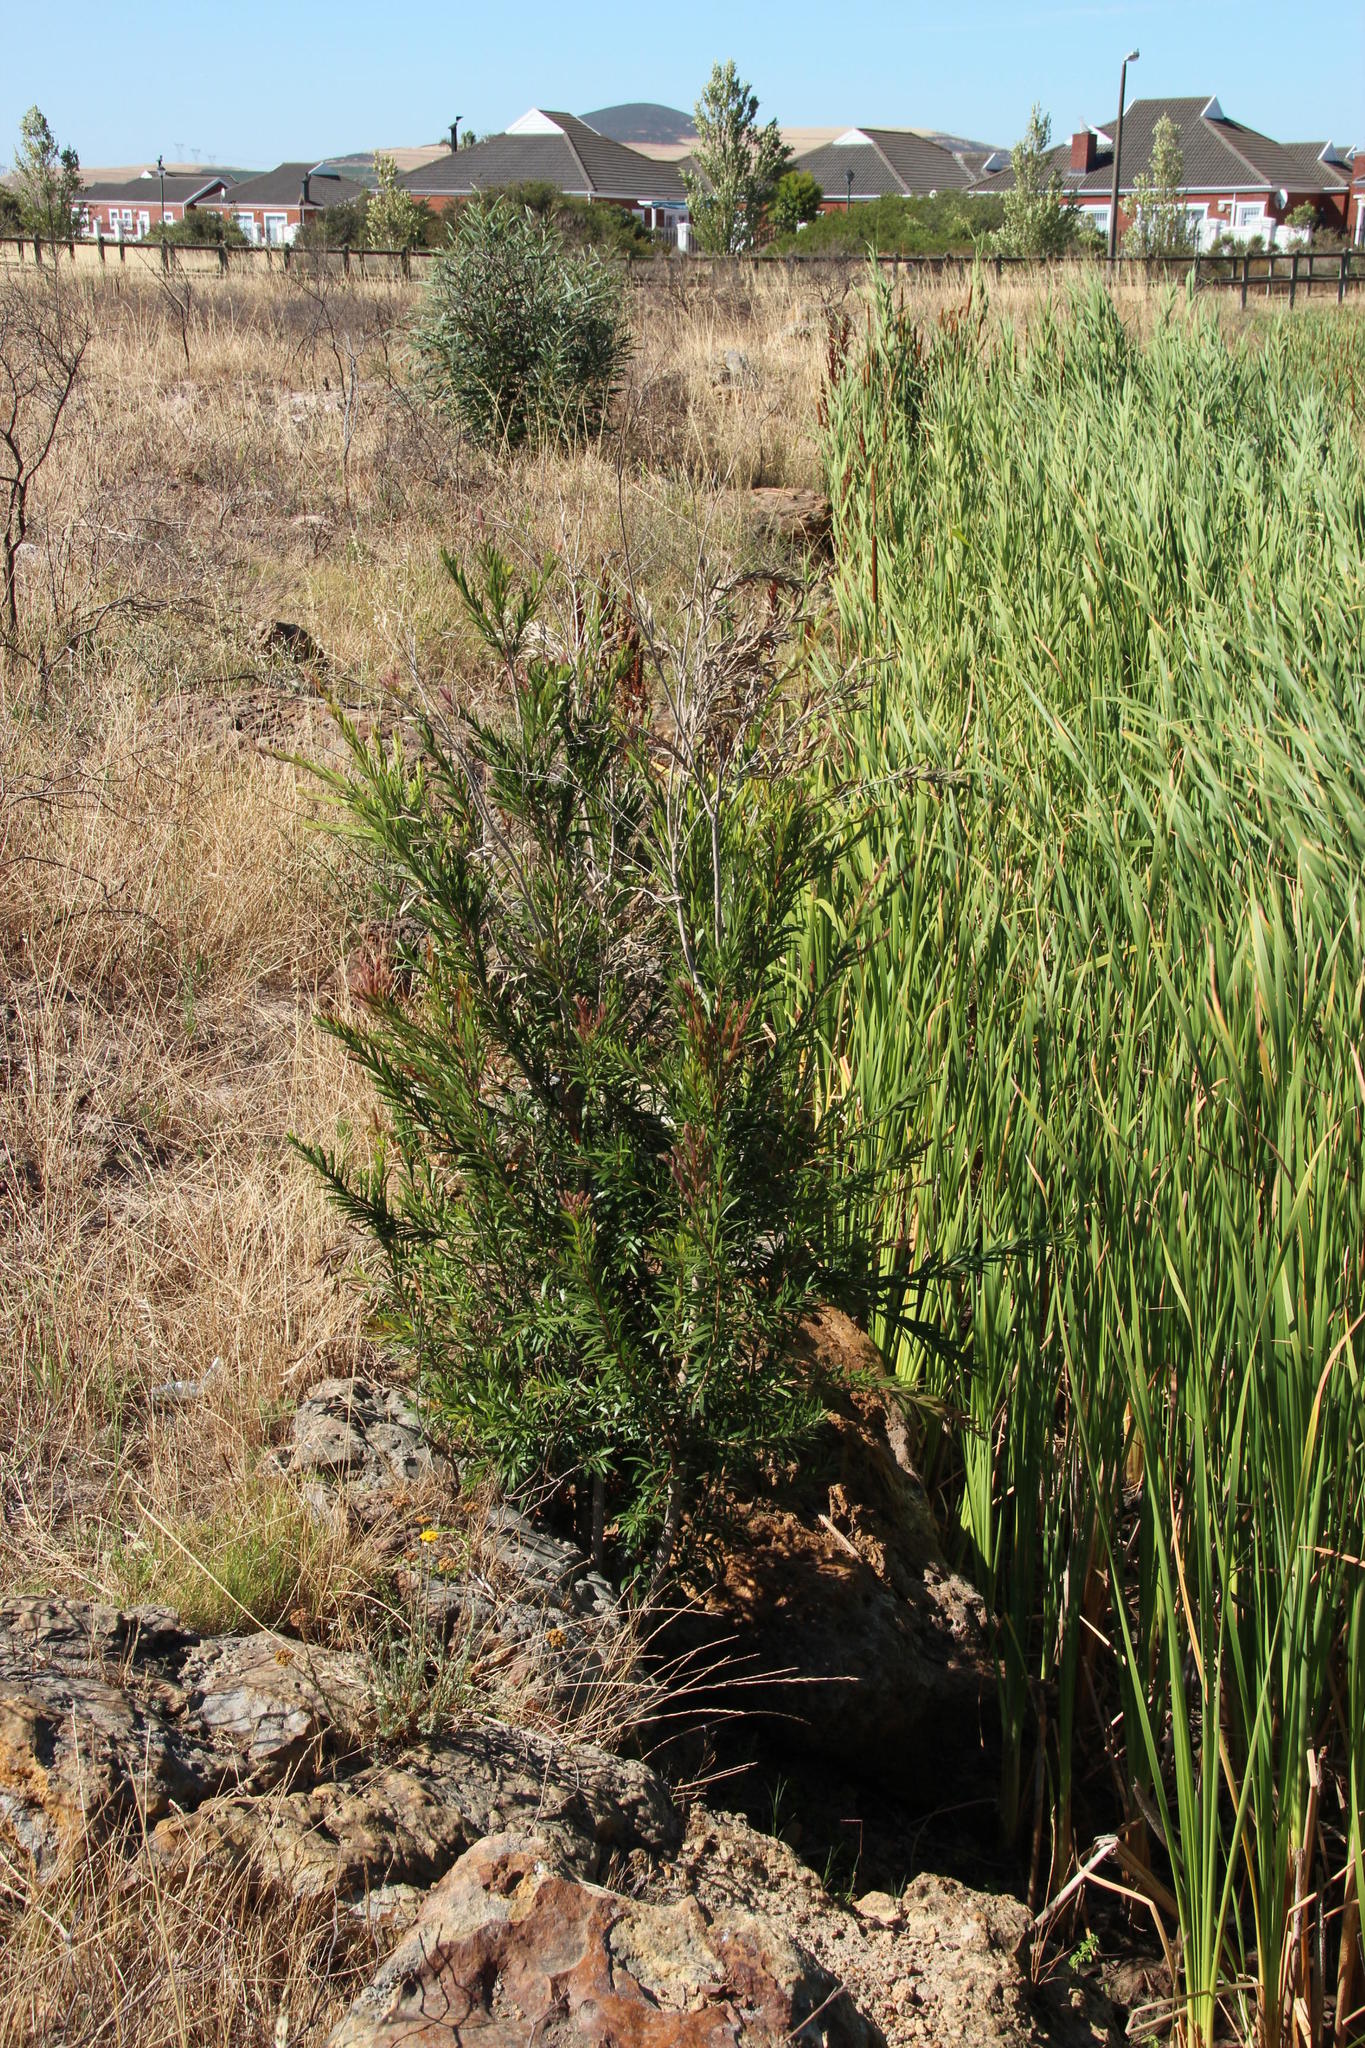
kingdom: Plantae
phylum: Tracheophyta
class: Magnoliopsida
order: Myrtales
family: Myrtaceae
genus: Callistemon
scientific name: Callistemon viminalis
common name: Drooping bottlebrush
